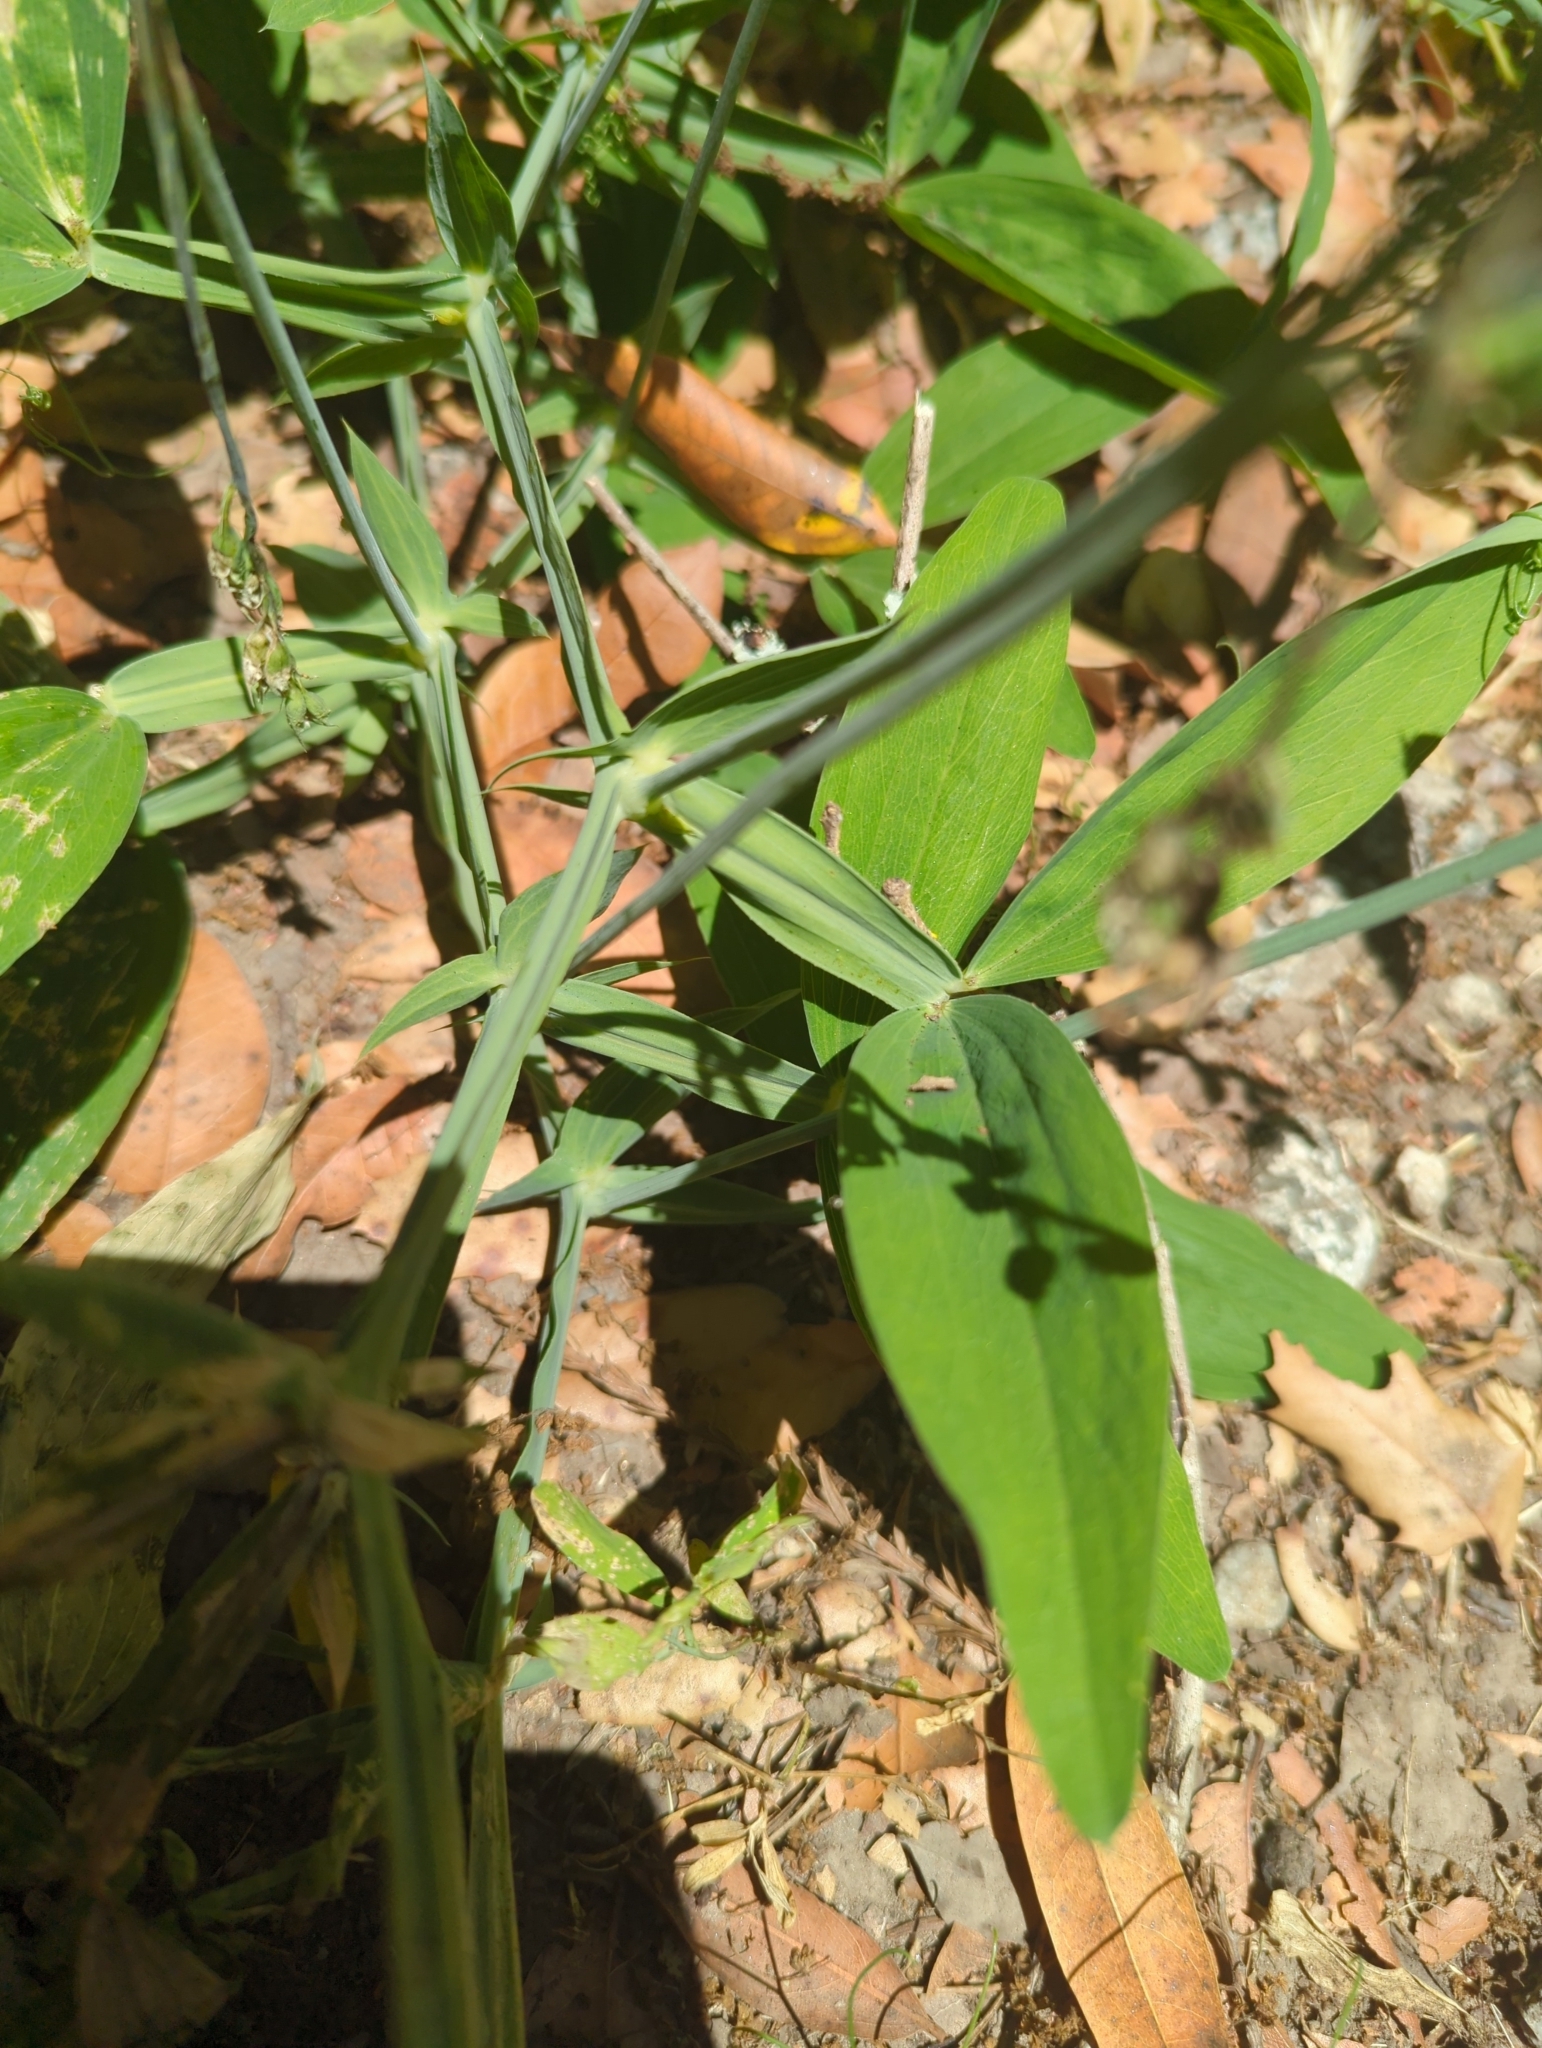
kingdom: Plantae
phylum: Tracheophyta
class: Magnoliopsida
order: Fabales
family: Fabaceae
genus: Lathyrus
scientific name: Lathyrus latifolius
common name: Perennial pea
